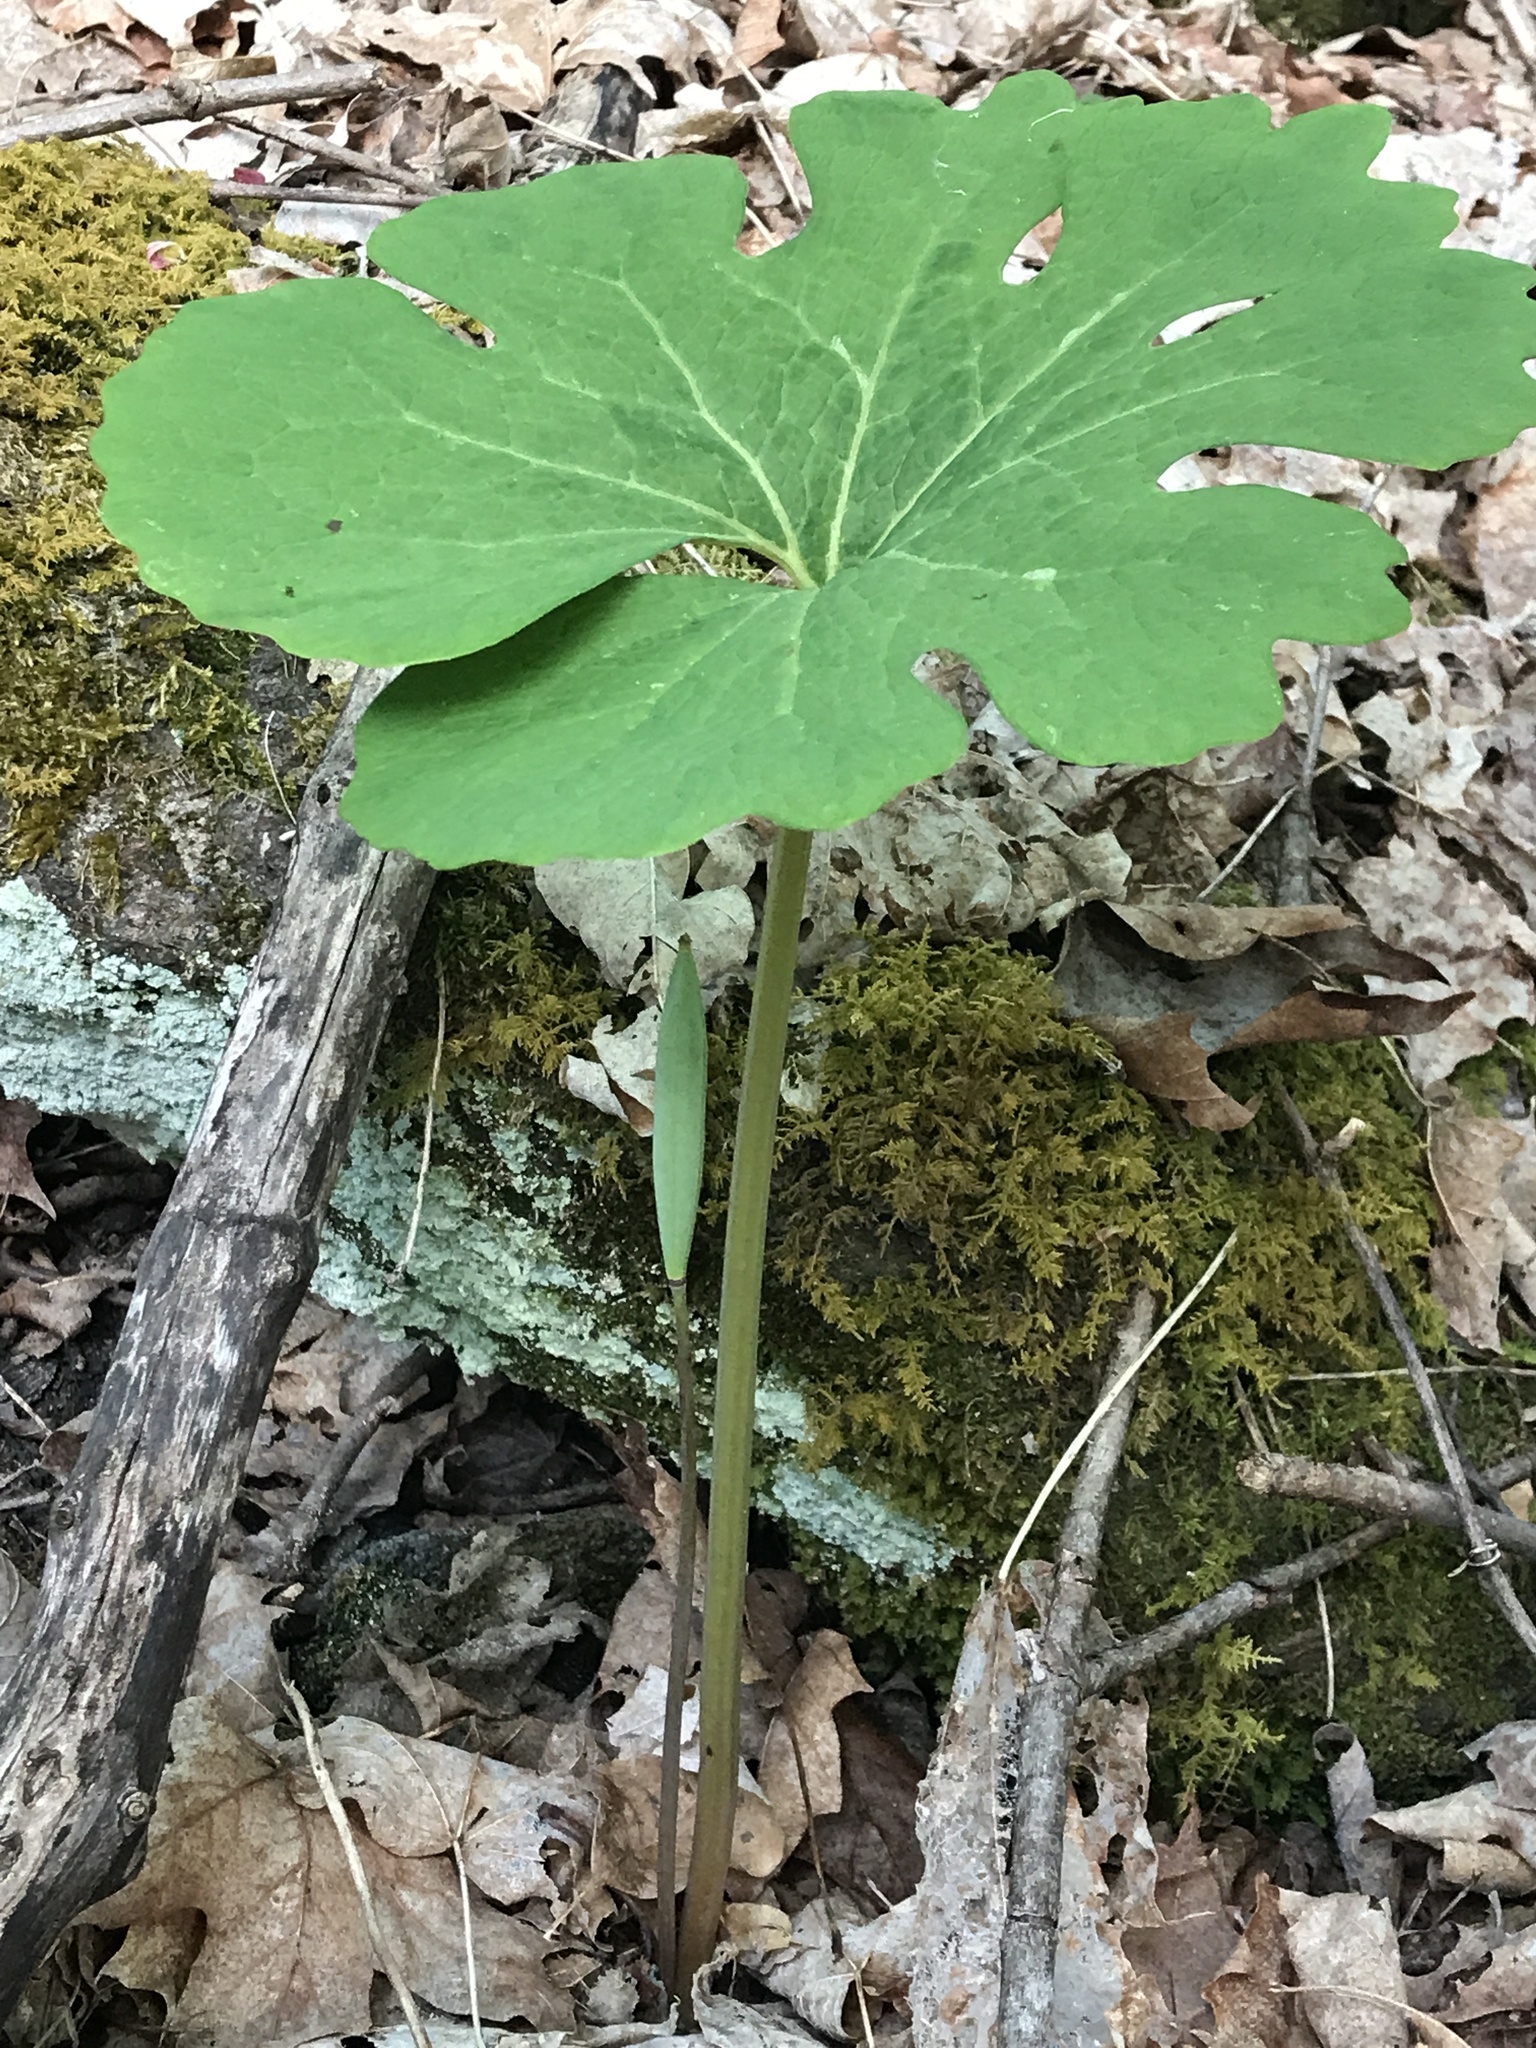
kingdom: Plantae
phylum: Tracheophyta
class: Magnoliopsida
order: Ranunculales
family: Papaveraceae
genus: Sanguinaria
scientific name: Sanguinaria canadensis
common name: Bloodroot
